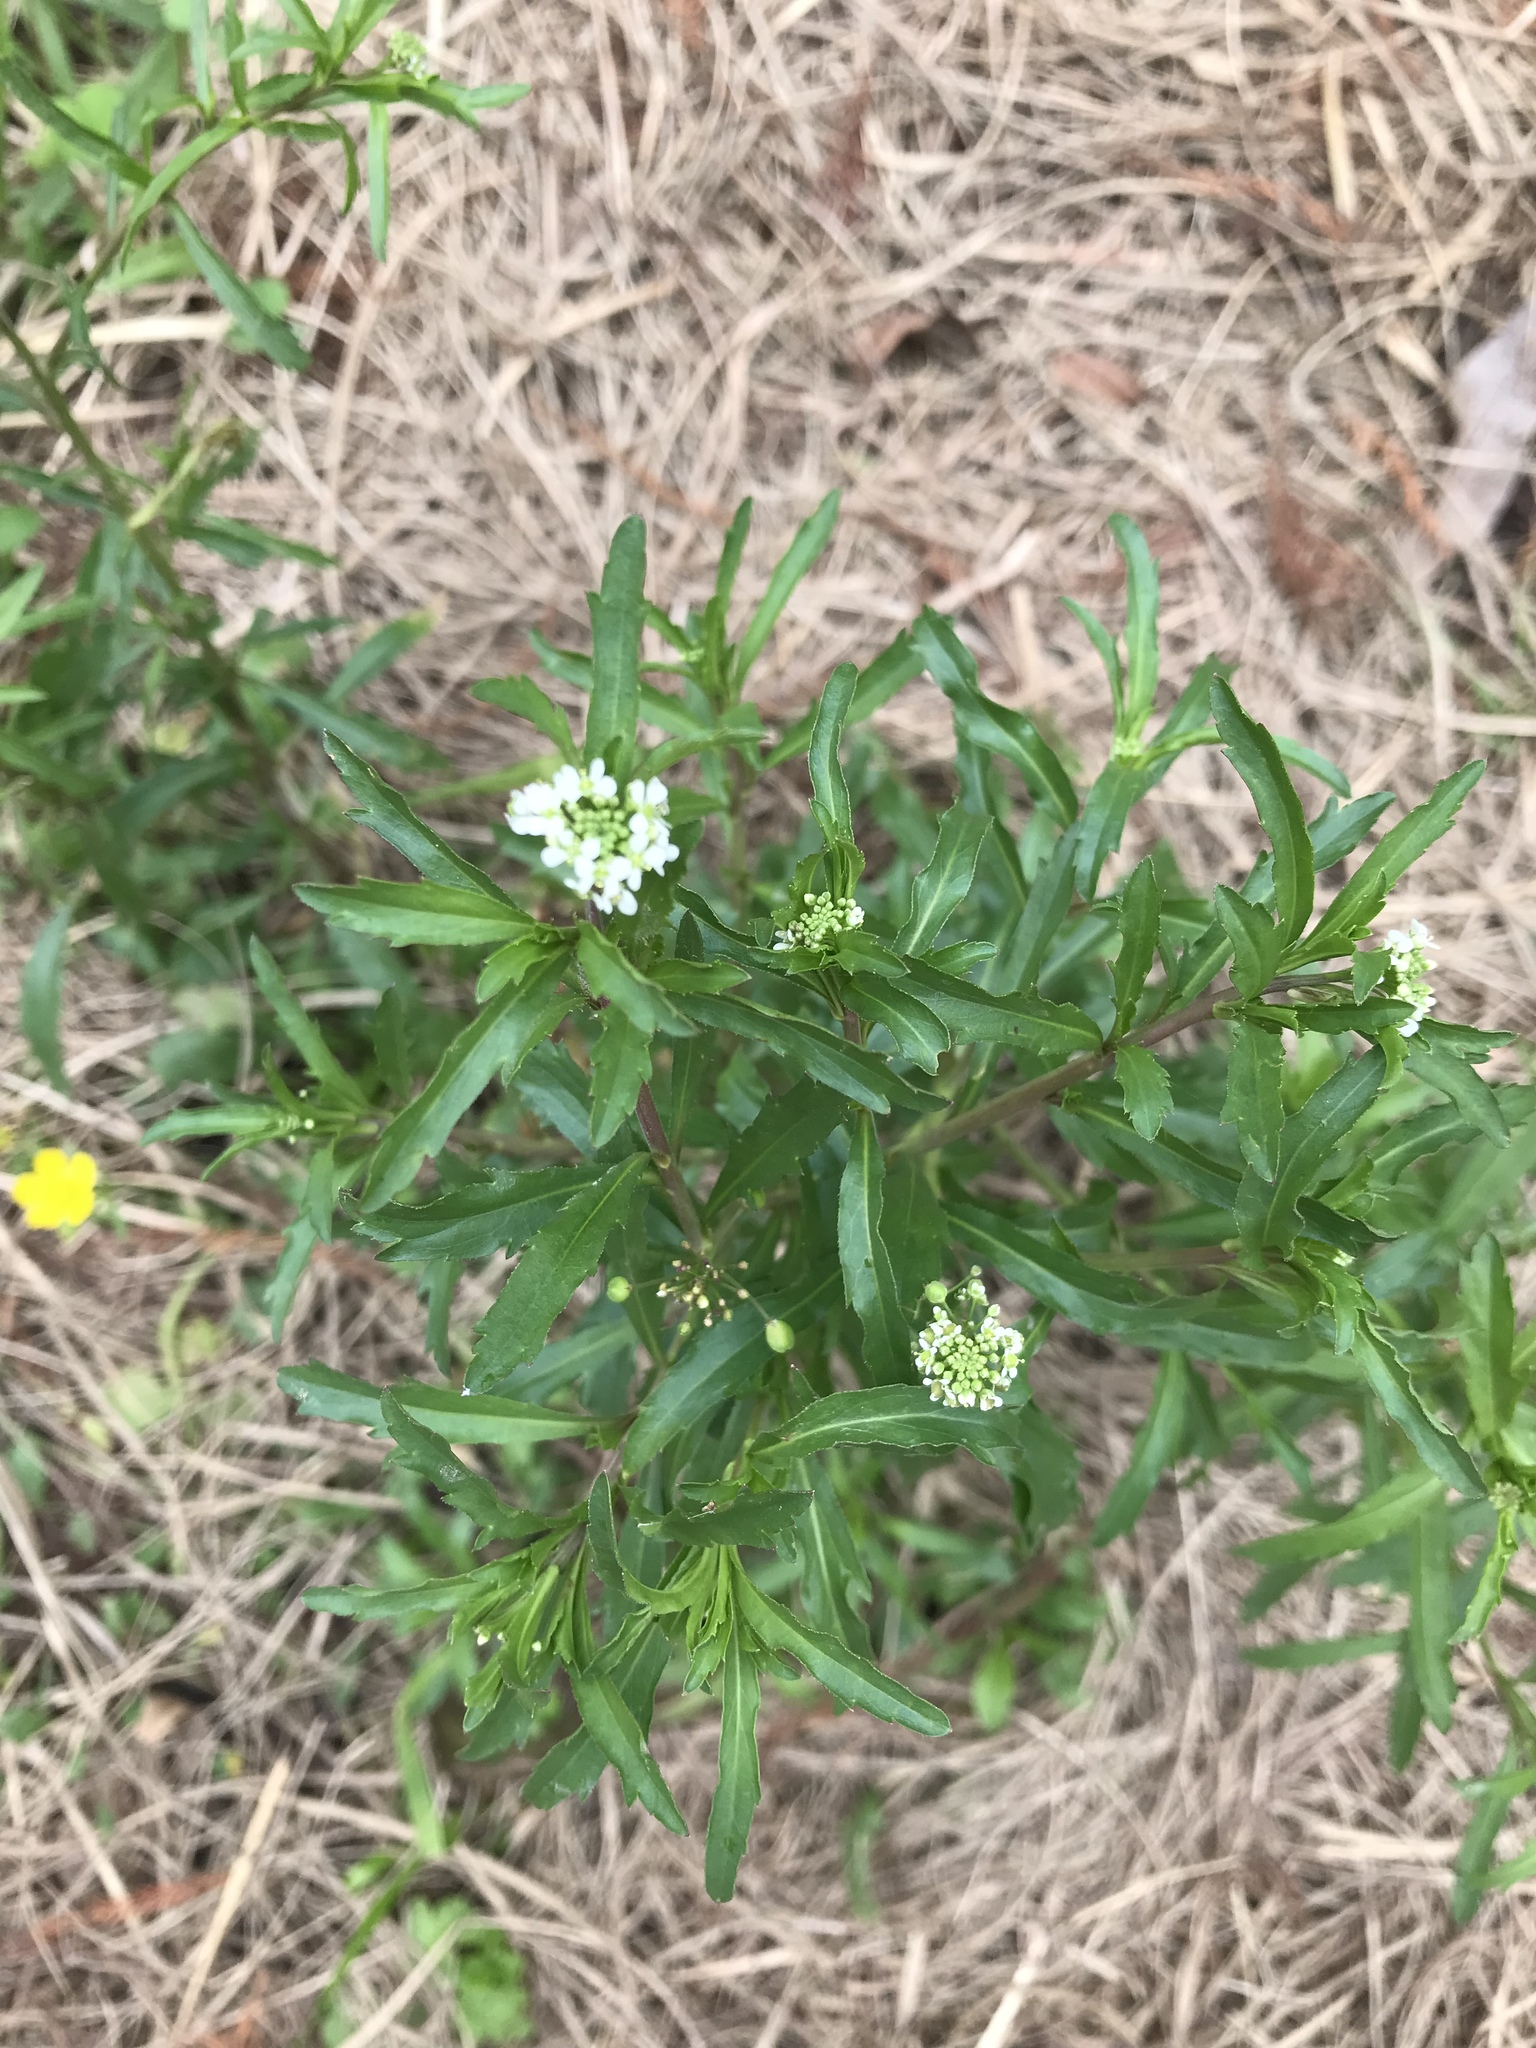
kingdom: Plantae
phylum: Tracheophyta
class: Magnoliopsida
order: Brassicales
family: Brassicaceae
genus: Lepidium
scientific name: Lepidium virginicum
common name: Least pepperwort
